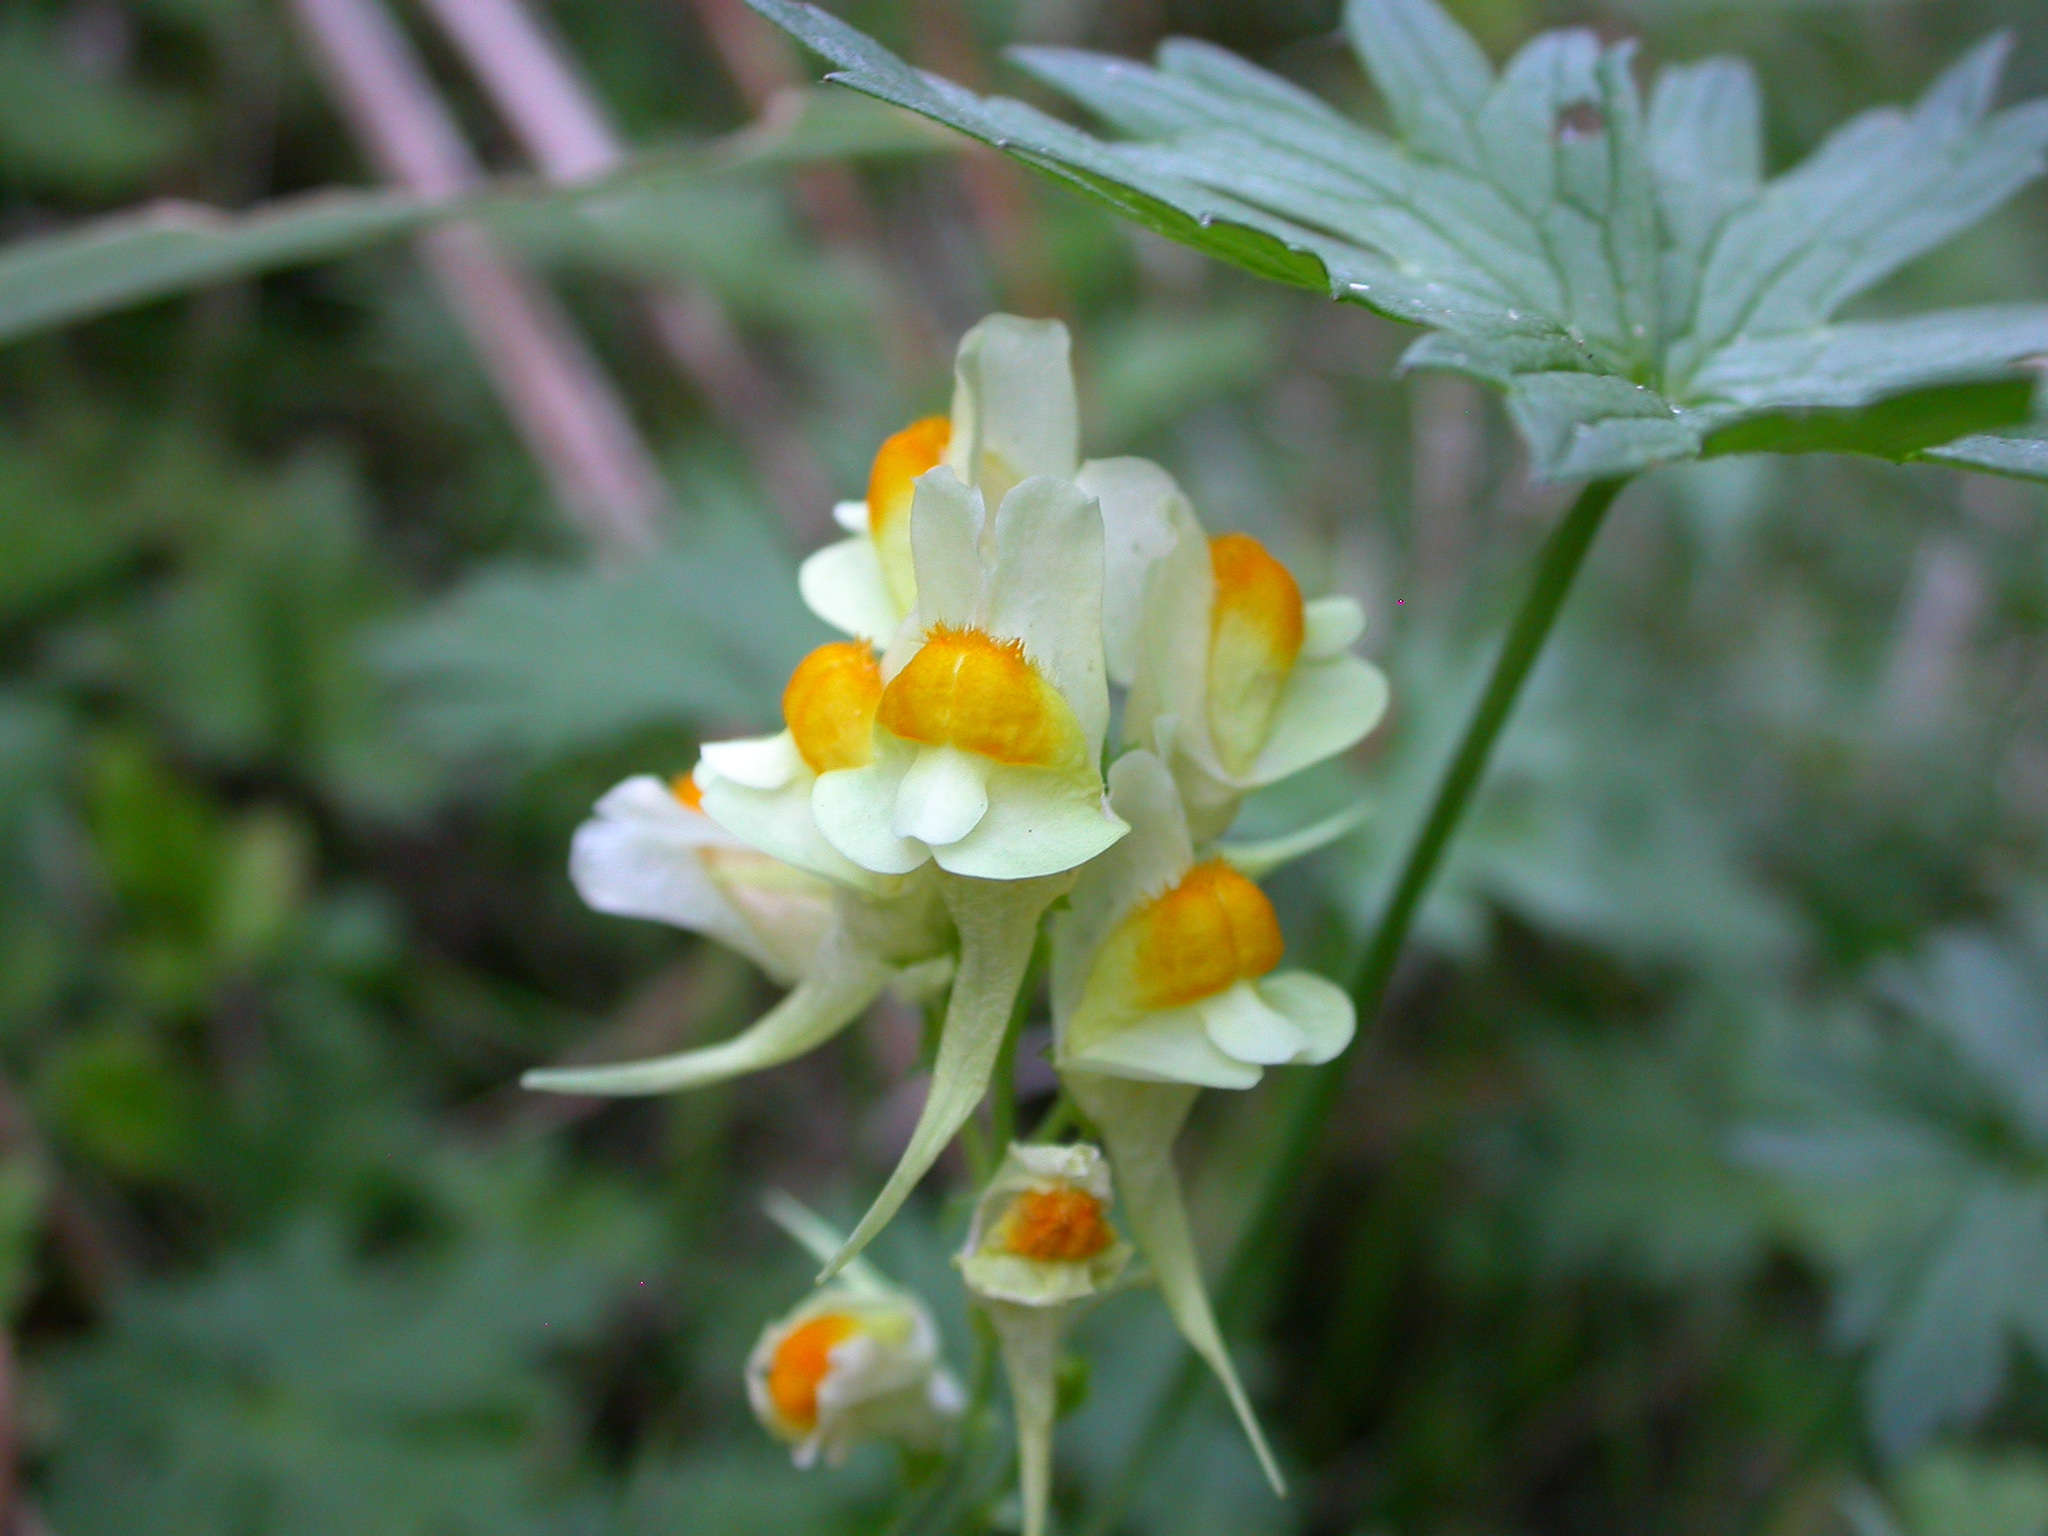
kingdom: Plantae
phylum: Tracheophyta
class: Magnoliopsida
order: Lamiales
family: Plantaginaceae
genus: Linaria
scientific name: Linaria vulgaris
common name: Butter and eggs
